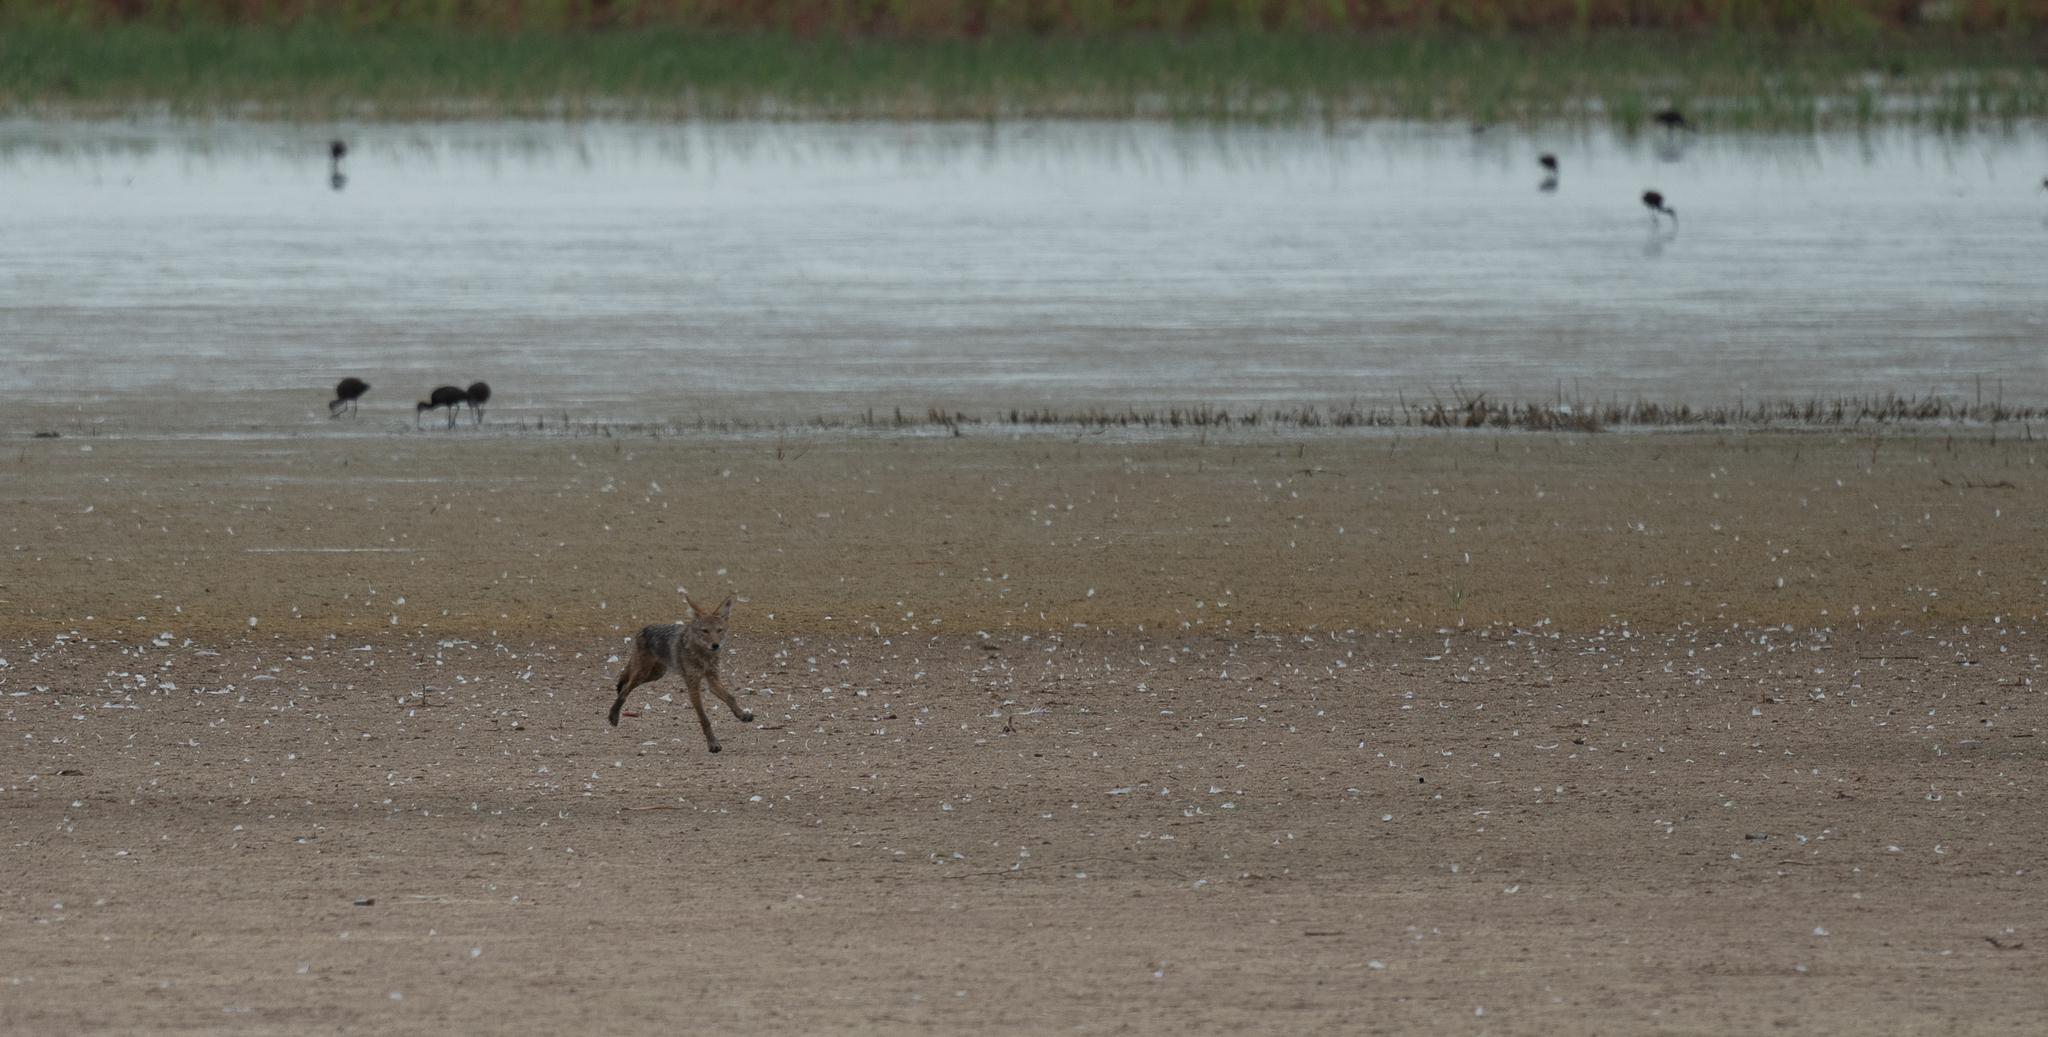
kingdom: Animalia
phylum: Chordata
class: Mammalia
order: Carnivora
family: Canidae
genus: Canis
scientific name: Canis latrans
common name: Coyote
